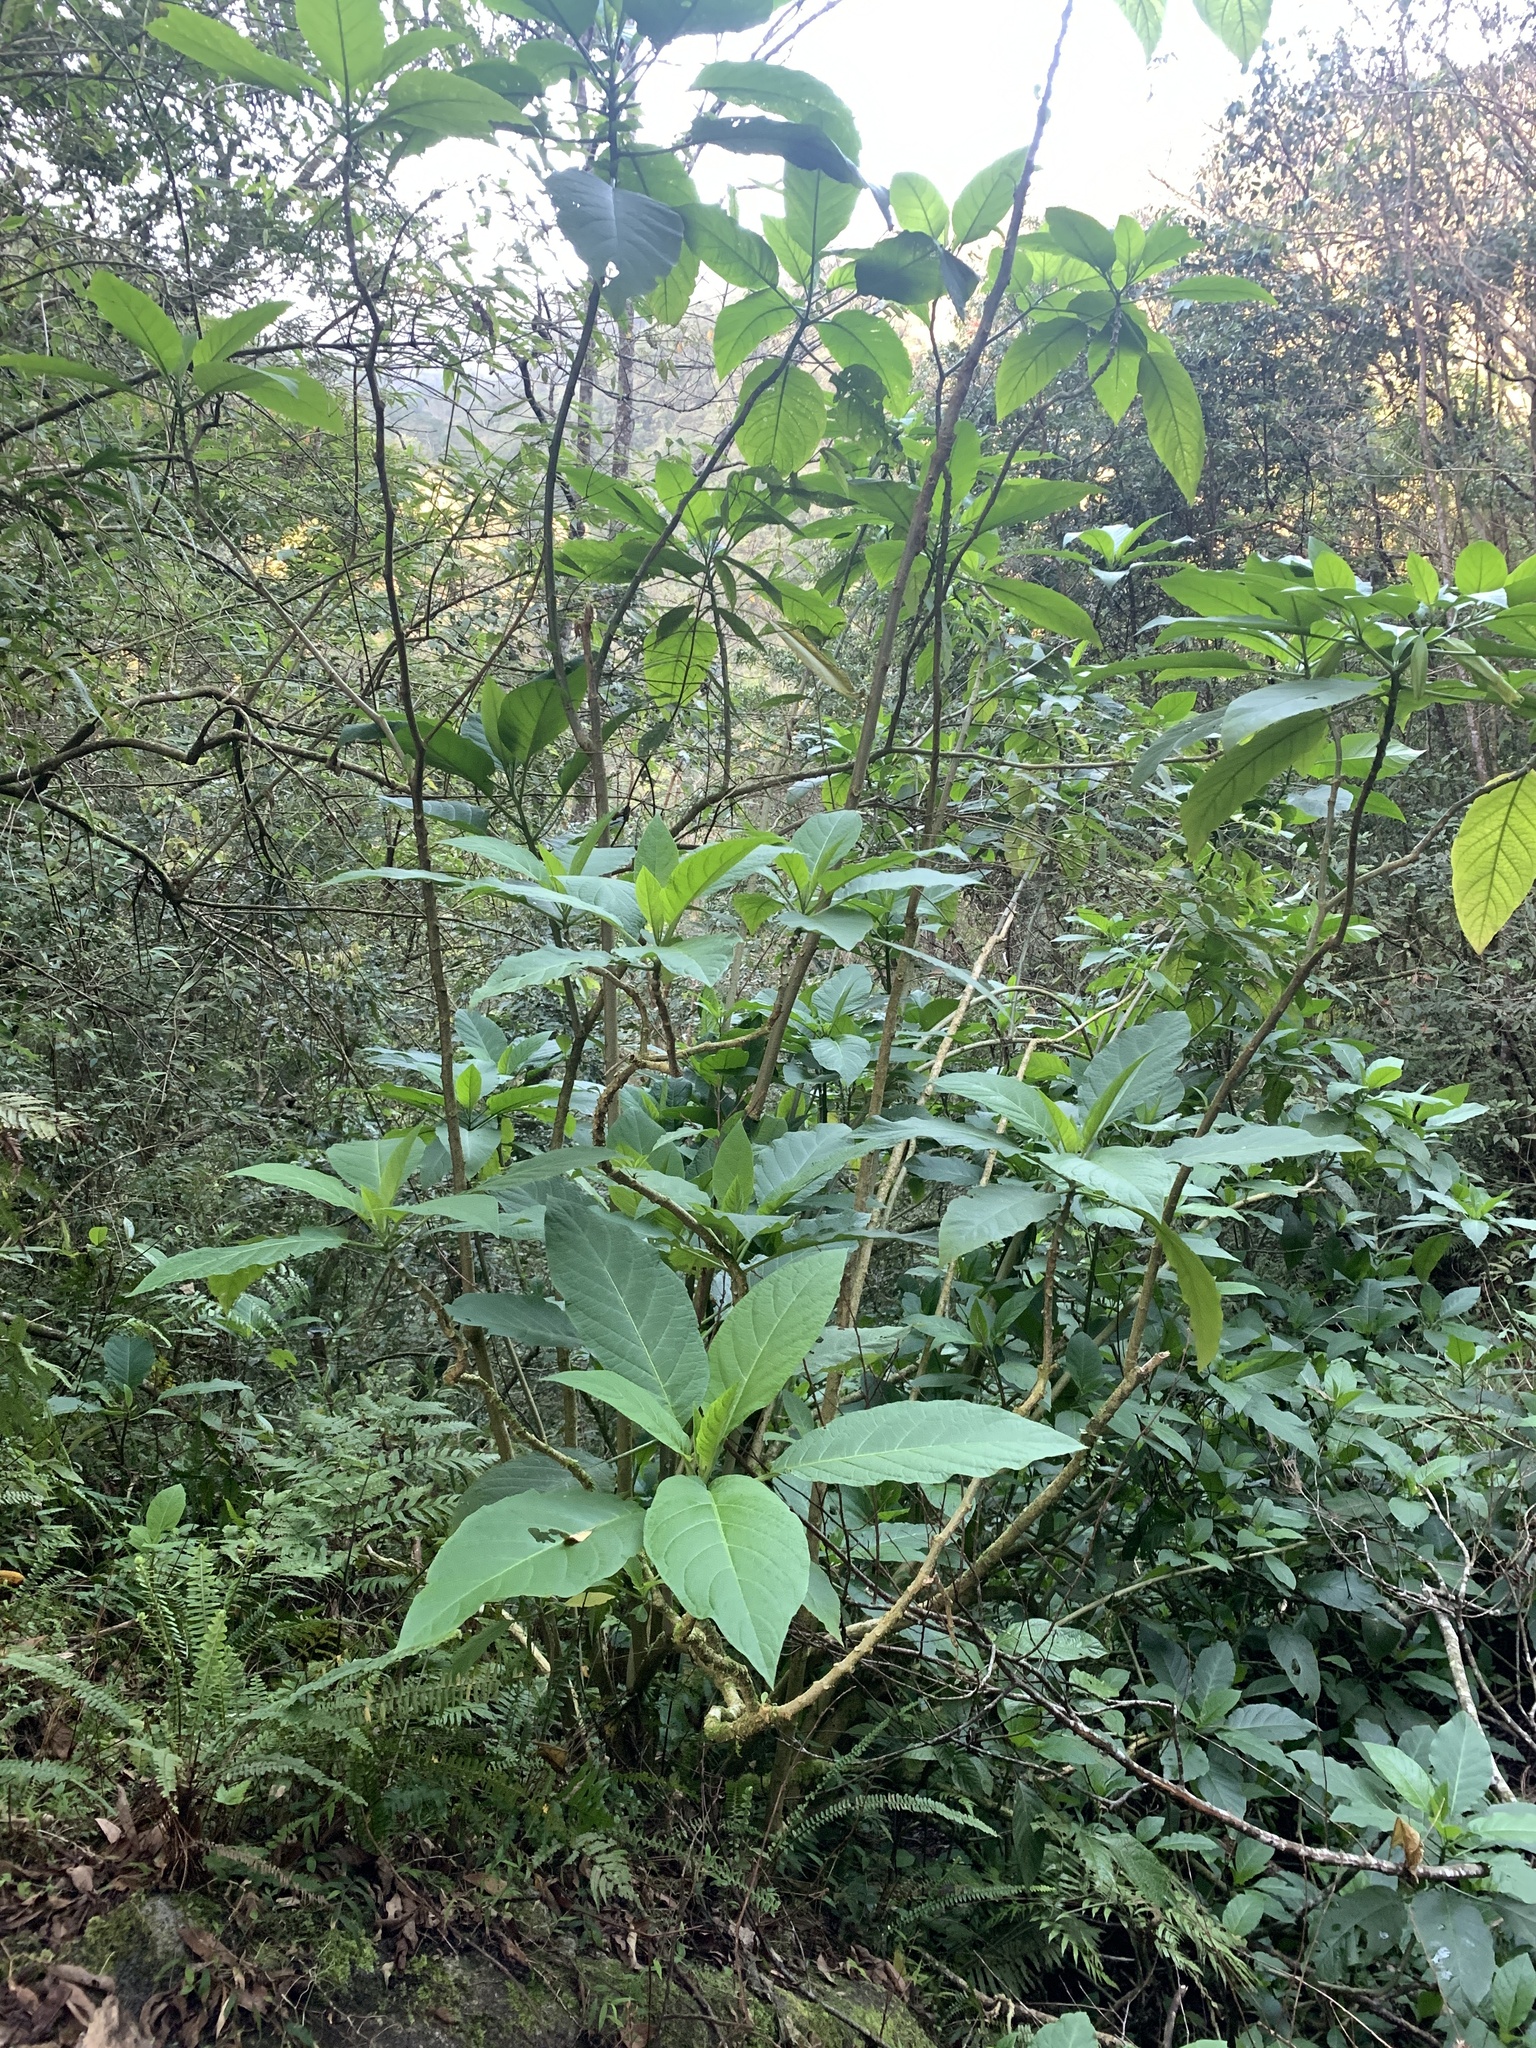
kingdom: Plantae
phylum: Tracheophyta
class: Magnoliopsida
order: Solanales
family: Solanaceae
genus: Brugmansia
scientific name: Brugmansia suaveolens
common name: Angel's tears
